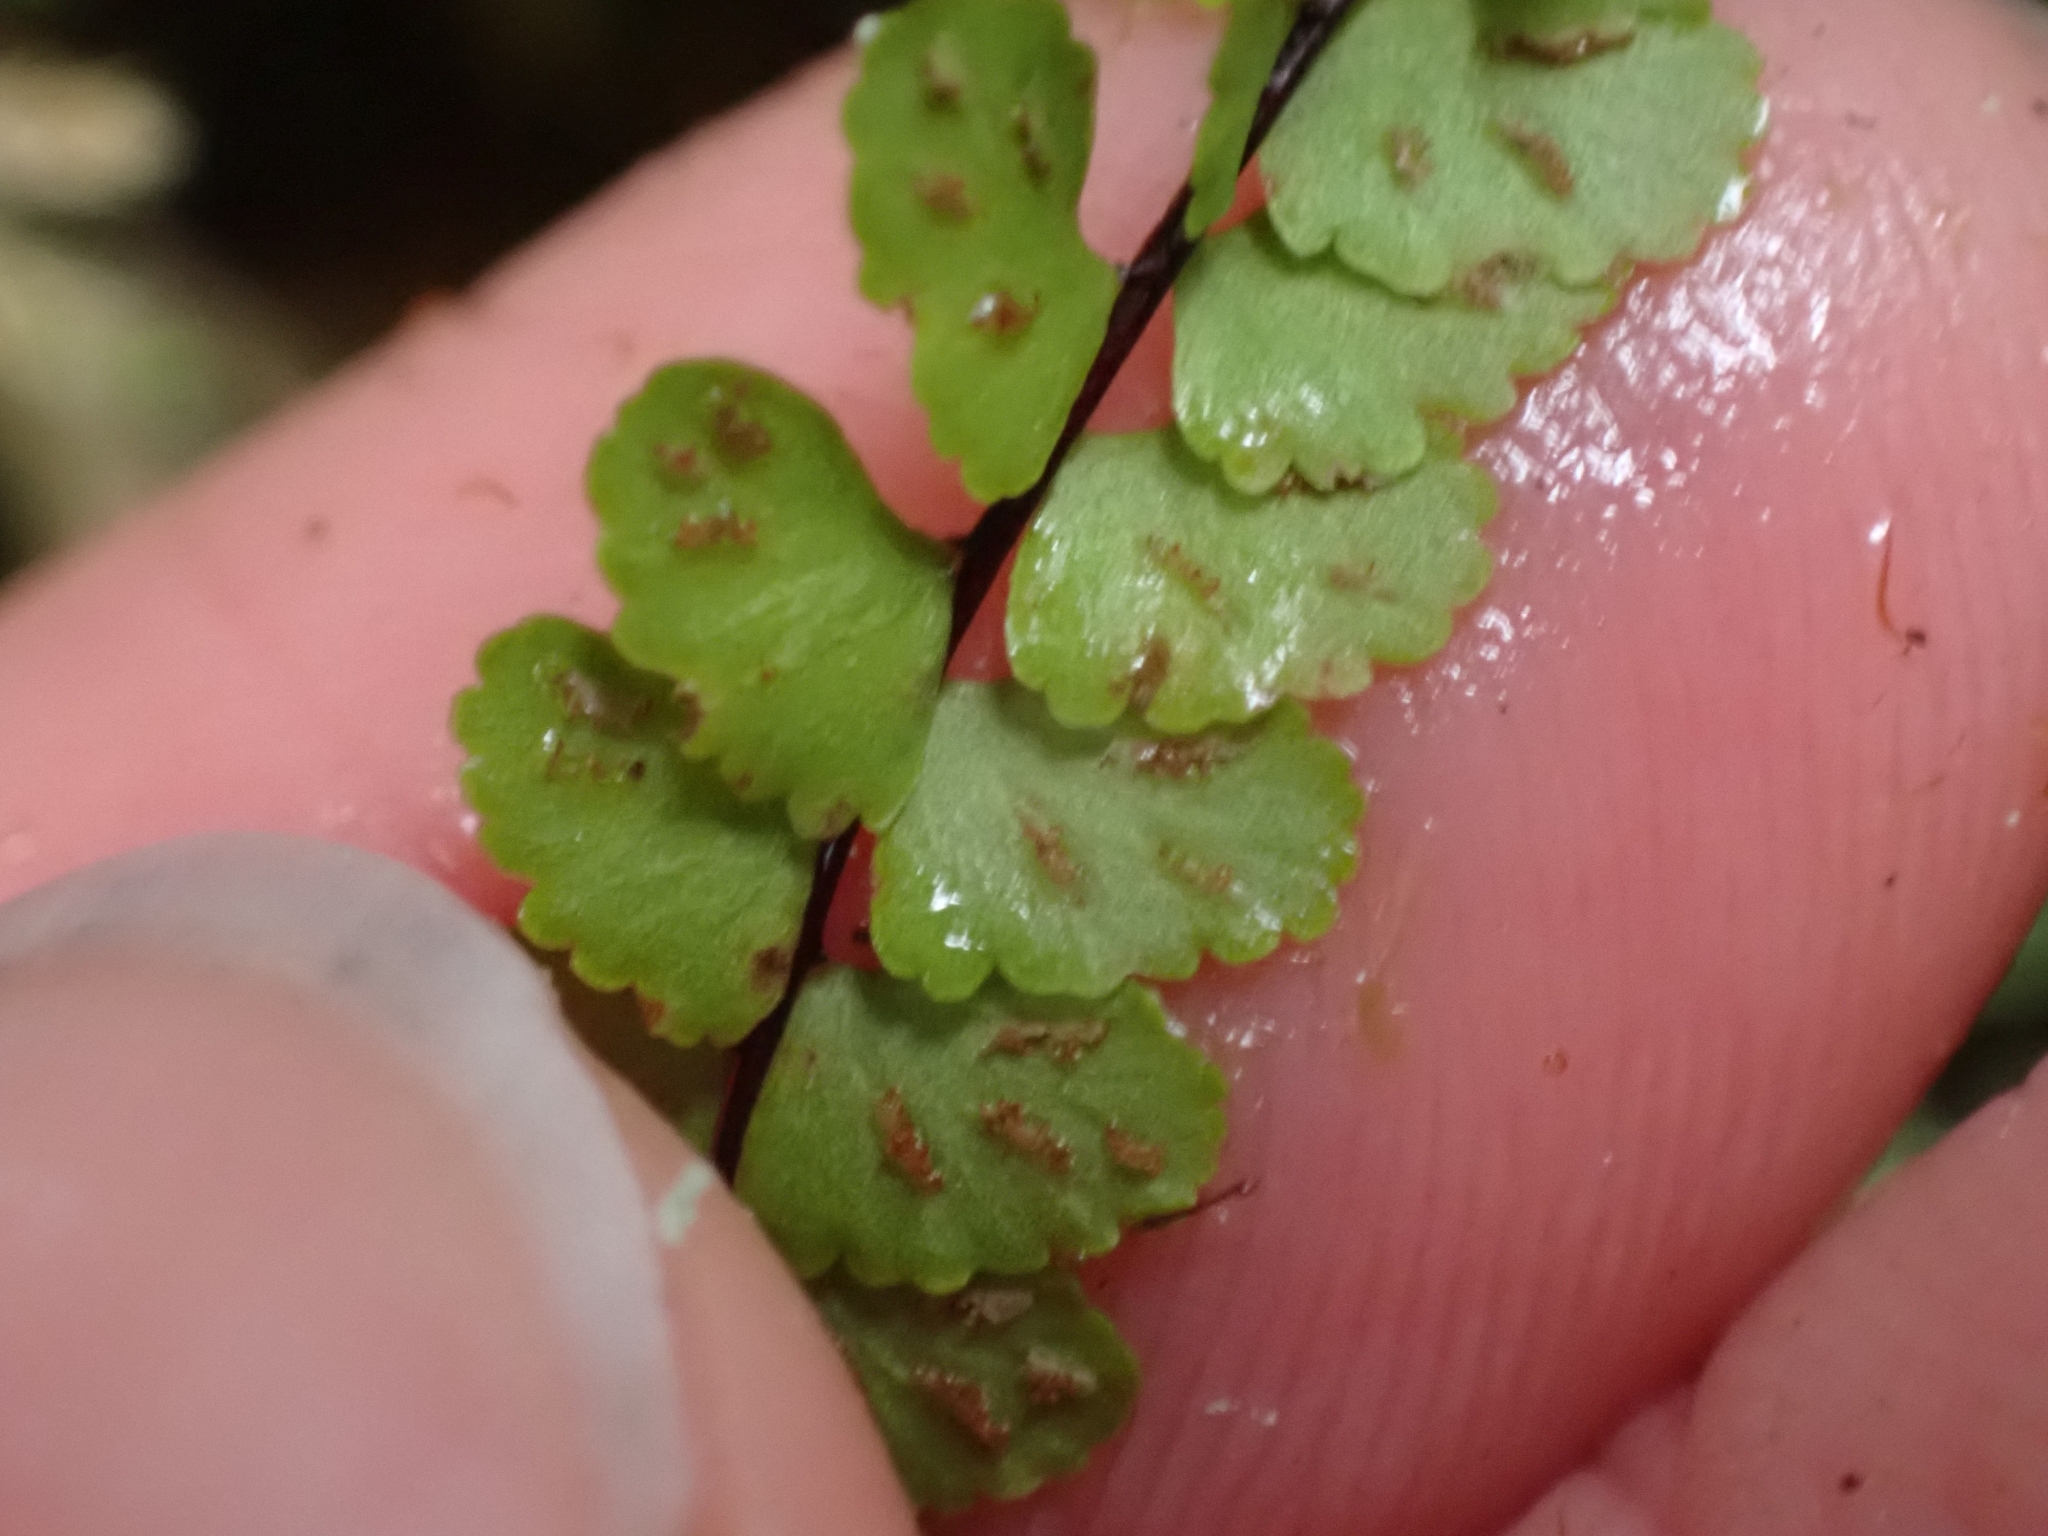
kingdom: Plantae
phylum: Tracheophyta
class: Polypodiopsida
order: Polypodiales
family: Aspleniaceae
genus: Asplenium
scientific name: Asplenium trichomanes
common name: Maidenhair spleenwort
